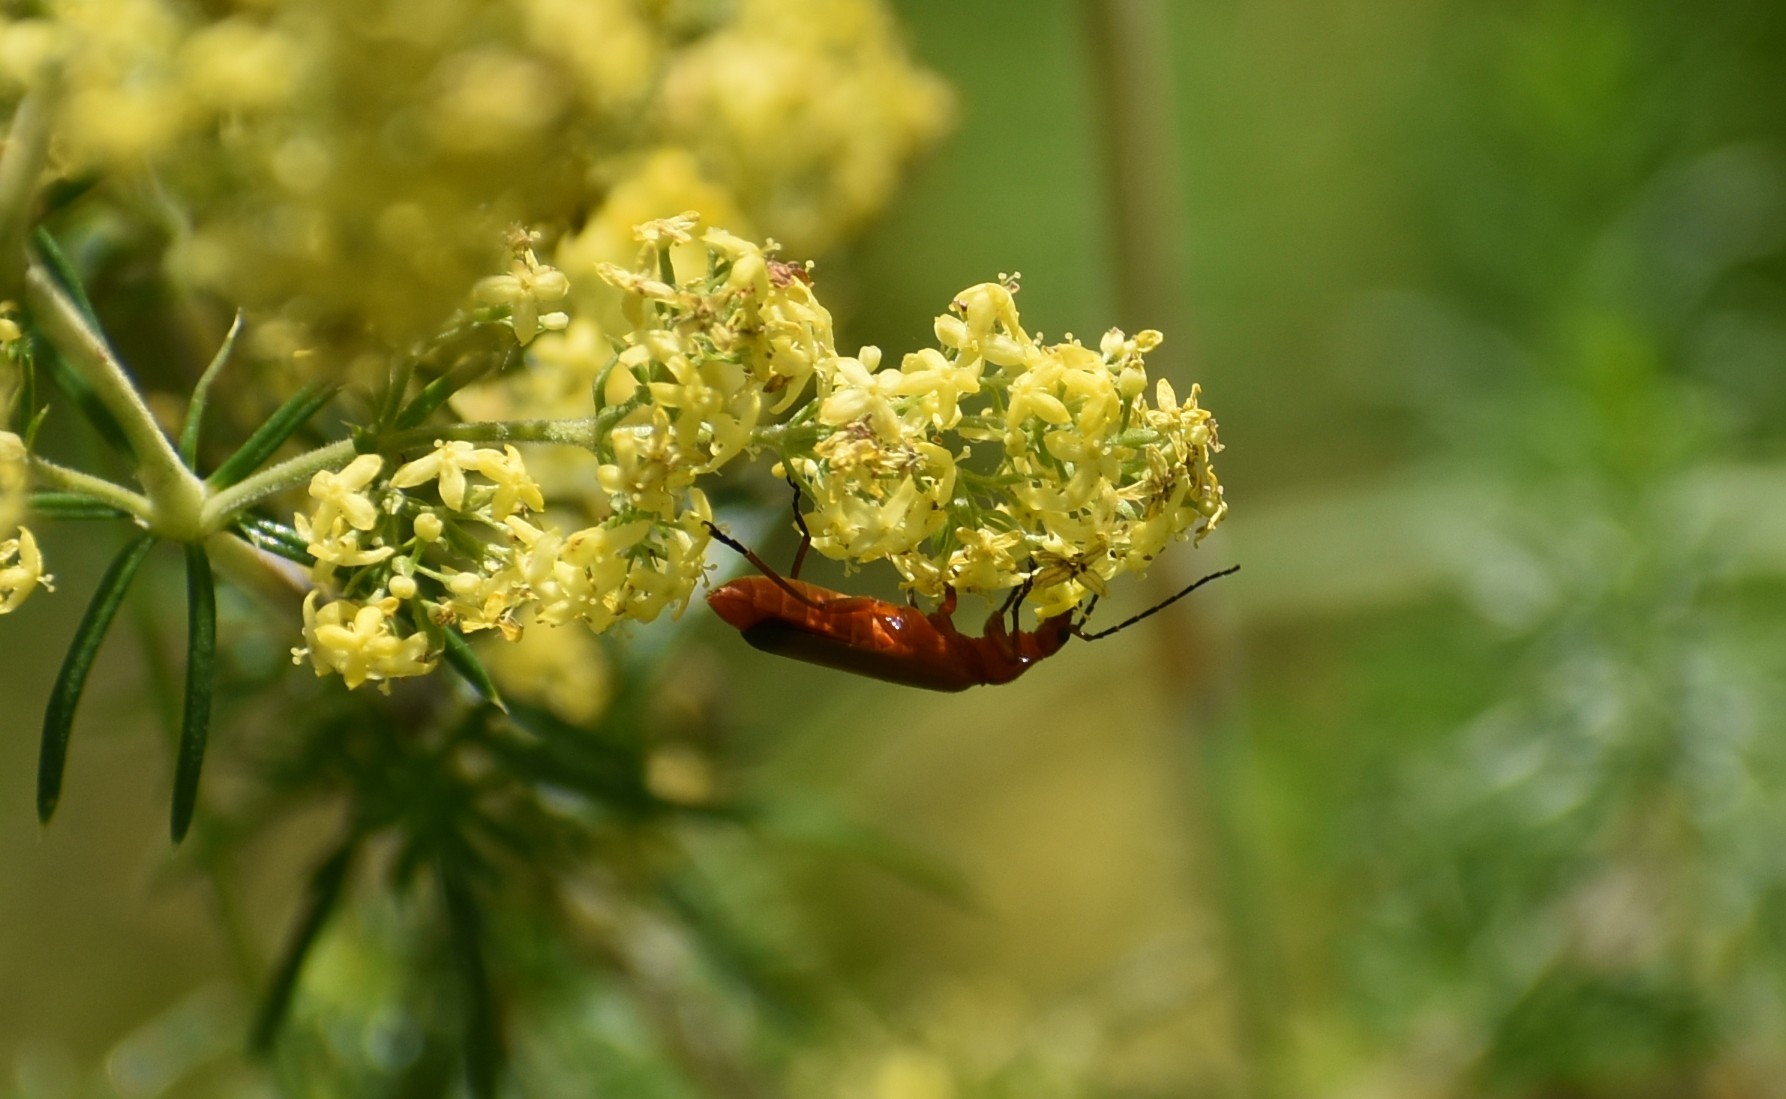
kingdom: Animalia
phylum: Arthropoda
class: Insecta
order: Coleoptera
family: Cantharidae
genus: Rhagonycha
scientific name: Rhagonycha fulva
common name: Common red soldier beetle
